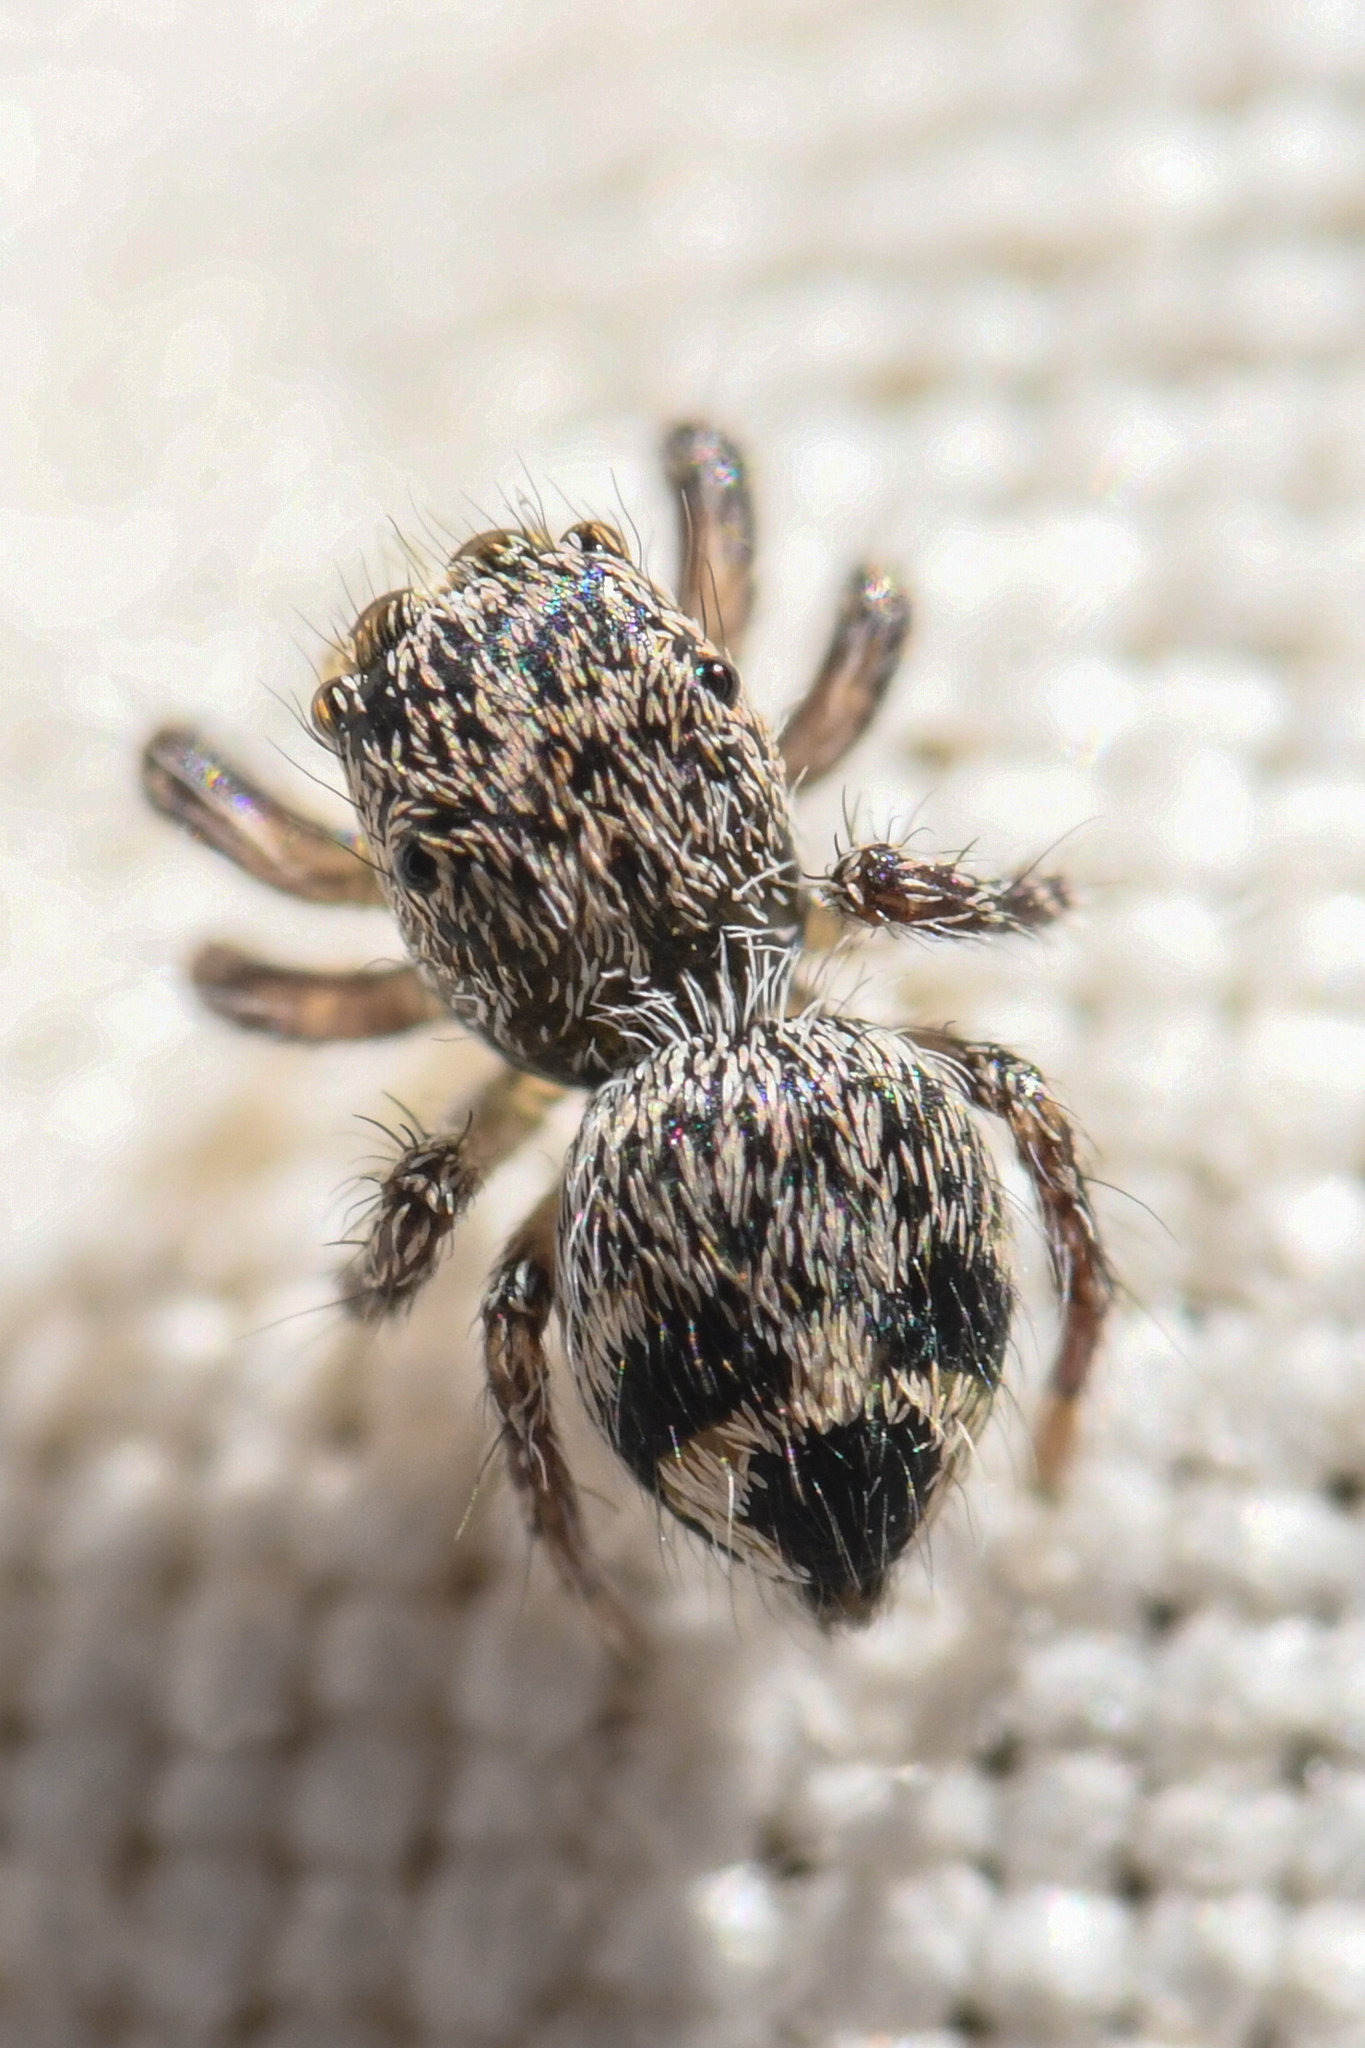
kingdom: Animalia
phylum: Arthropoda
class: Arachnida
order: Araneae
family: Salticidae
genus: Habronattus
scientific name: Habronattus hirsutus
